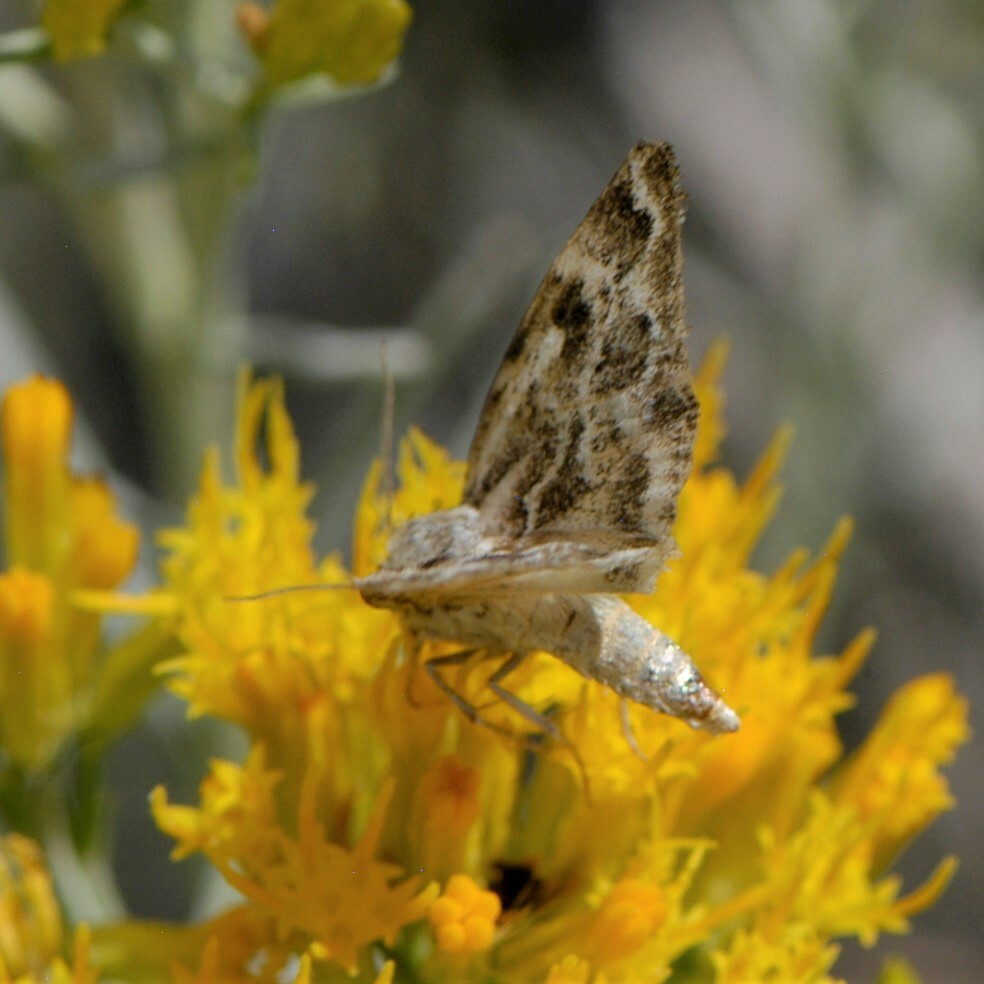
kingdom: Animalia
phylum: Arthropoda
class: Insecta
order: Lepidoptera
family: Noctuidae
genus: Schinia
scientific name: Schinia acutilinea
